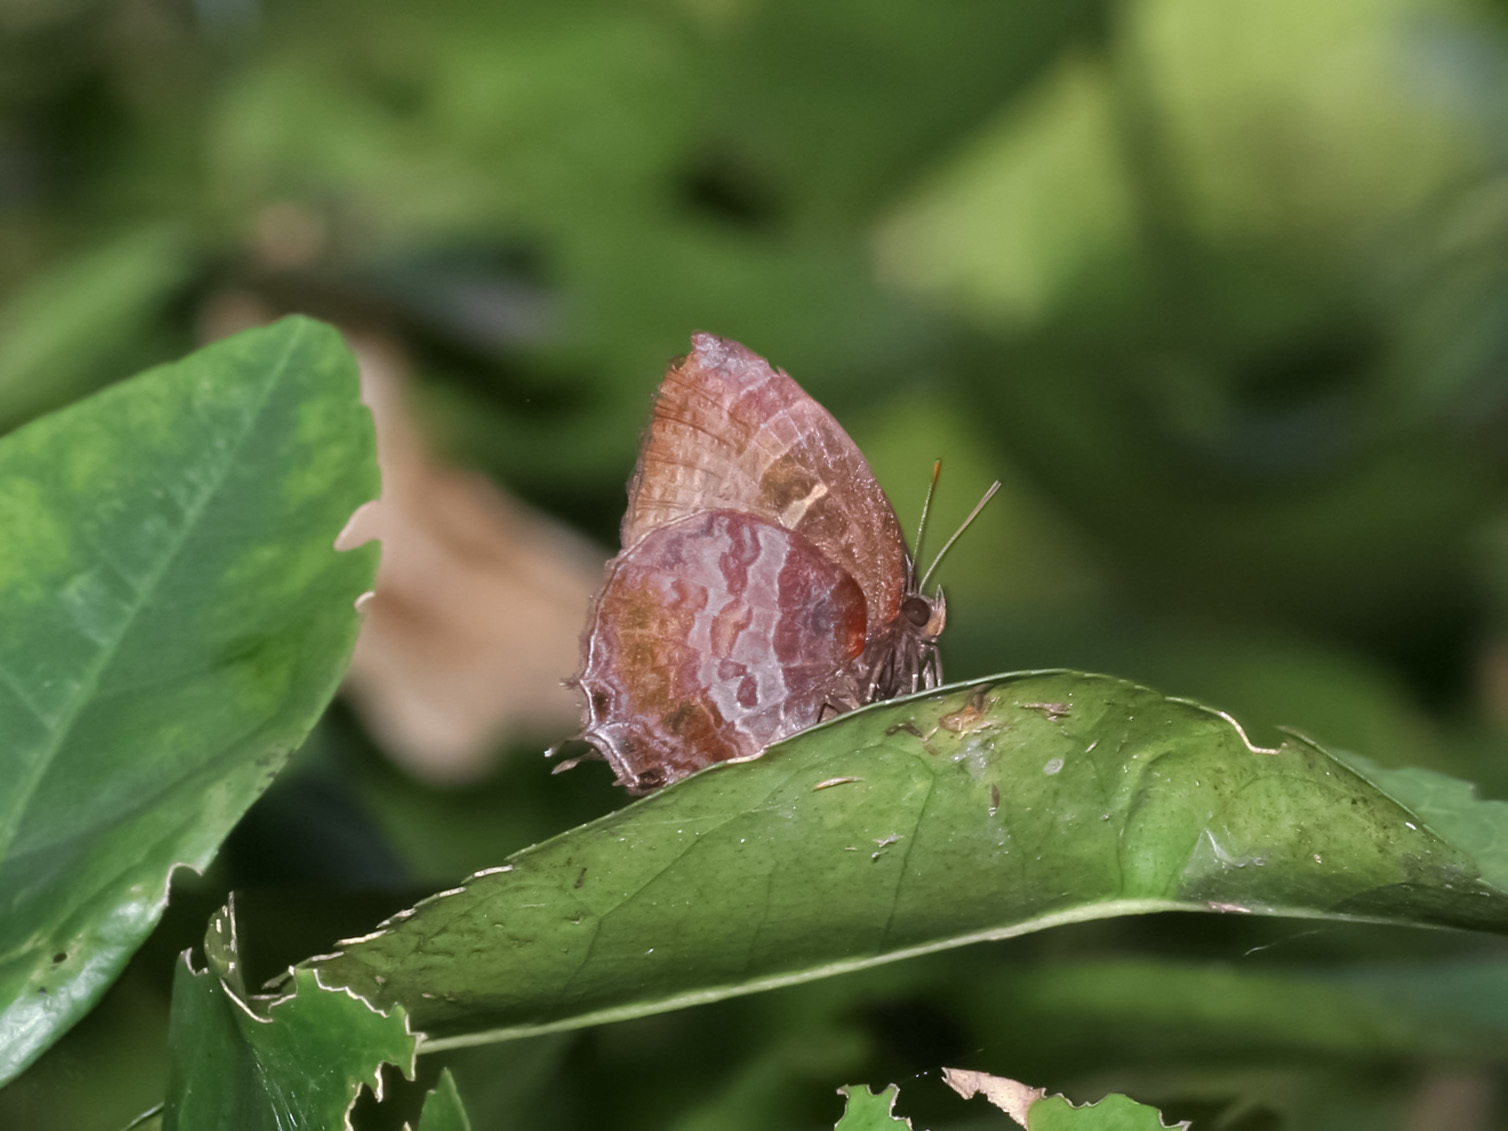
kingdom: Animalia
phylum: Arthropoda
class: Insecta
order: Lepidoptera
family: Lycaenidae
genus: Flos
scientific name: Flos apidanus
